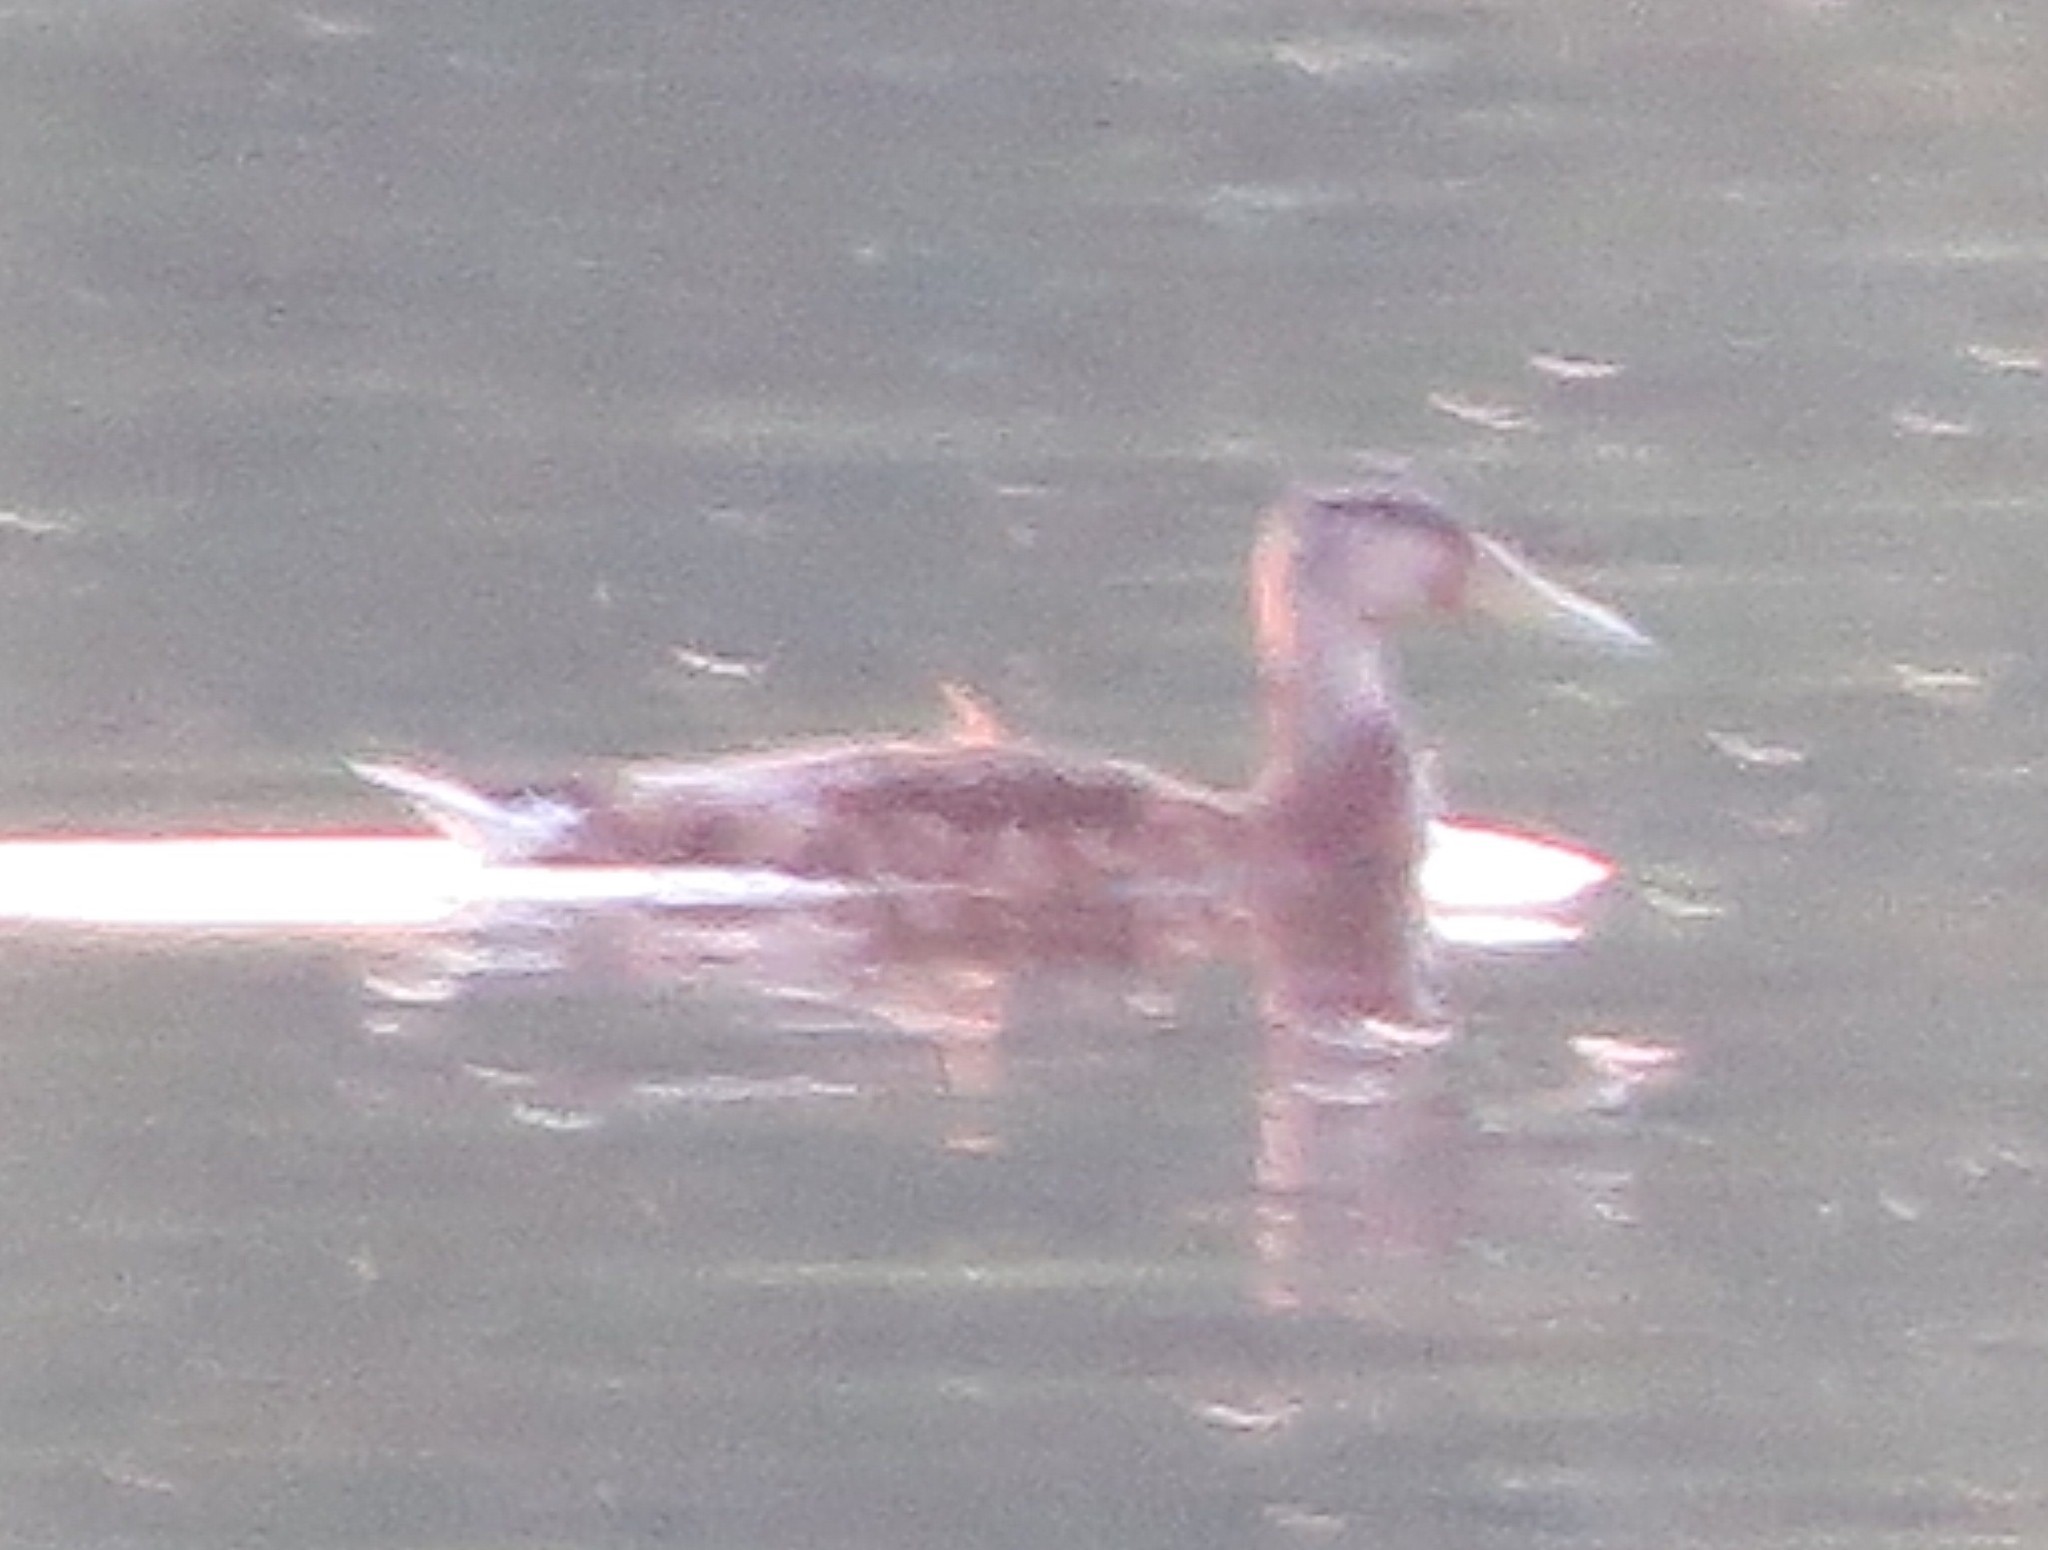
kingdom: Animalia
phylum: Chordata
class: Aves
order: Anseriformes
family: Anatidae
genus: Anas
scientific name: Anas platyrhynchos
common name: Mallard
